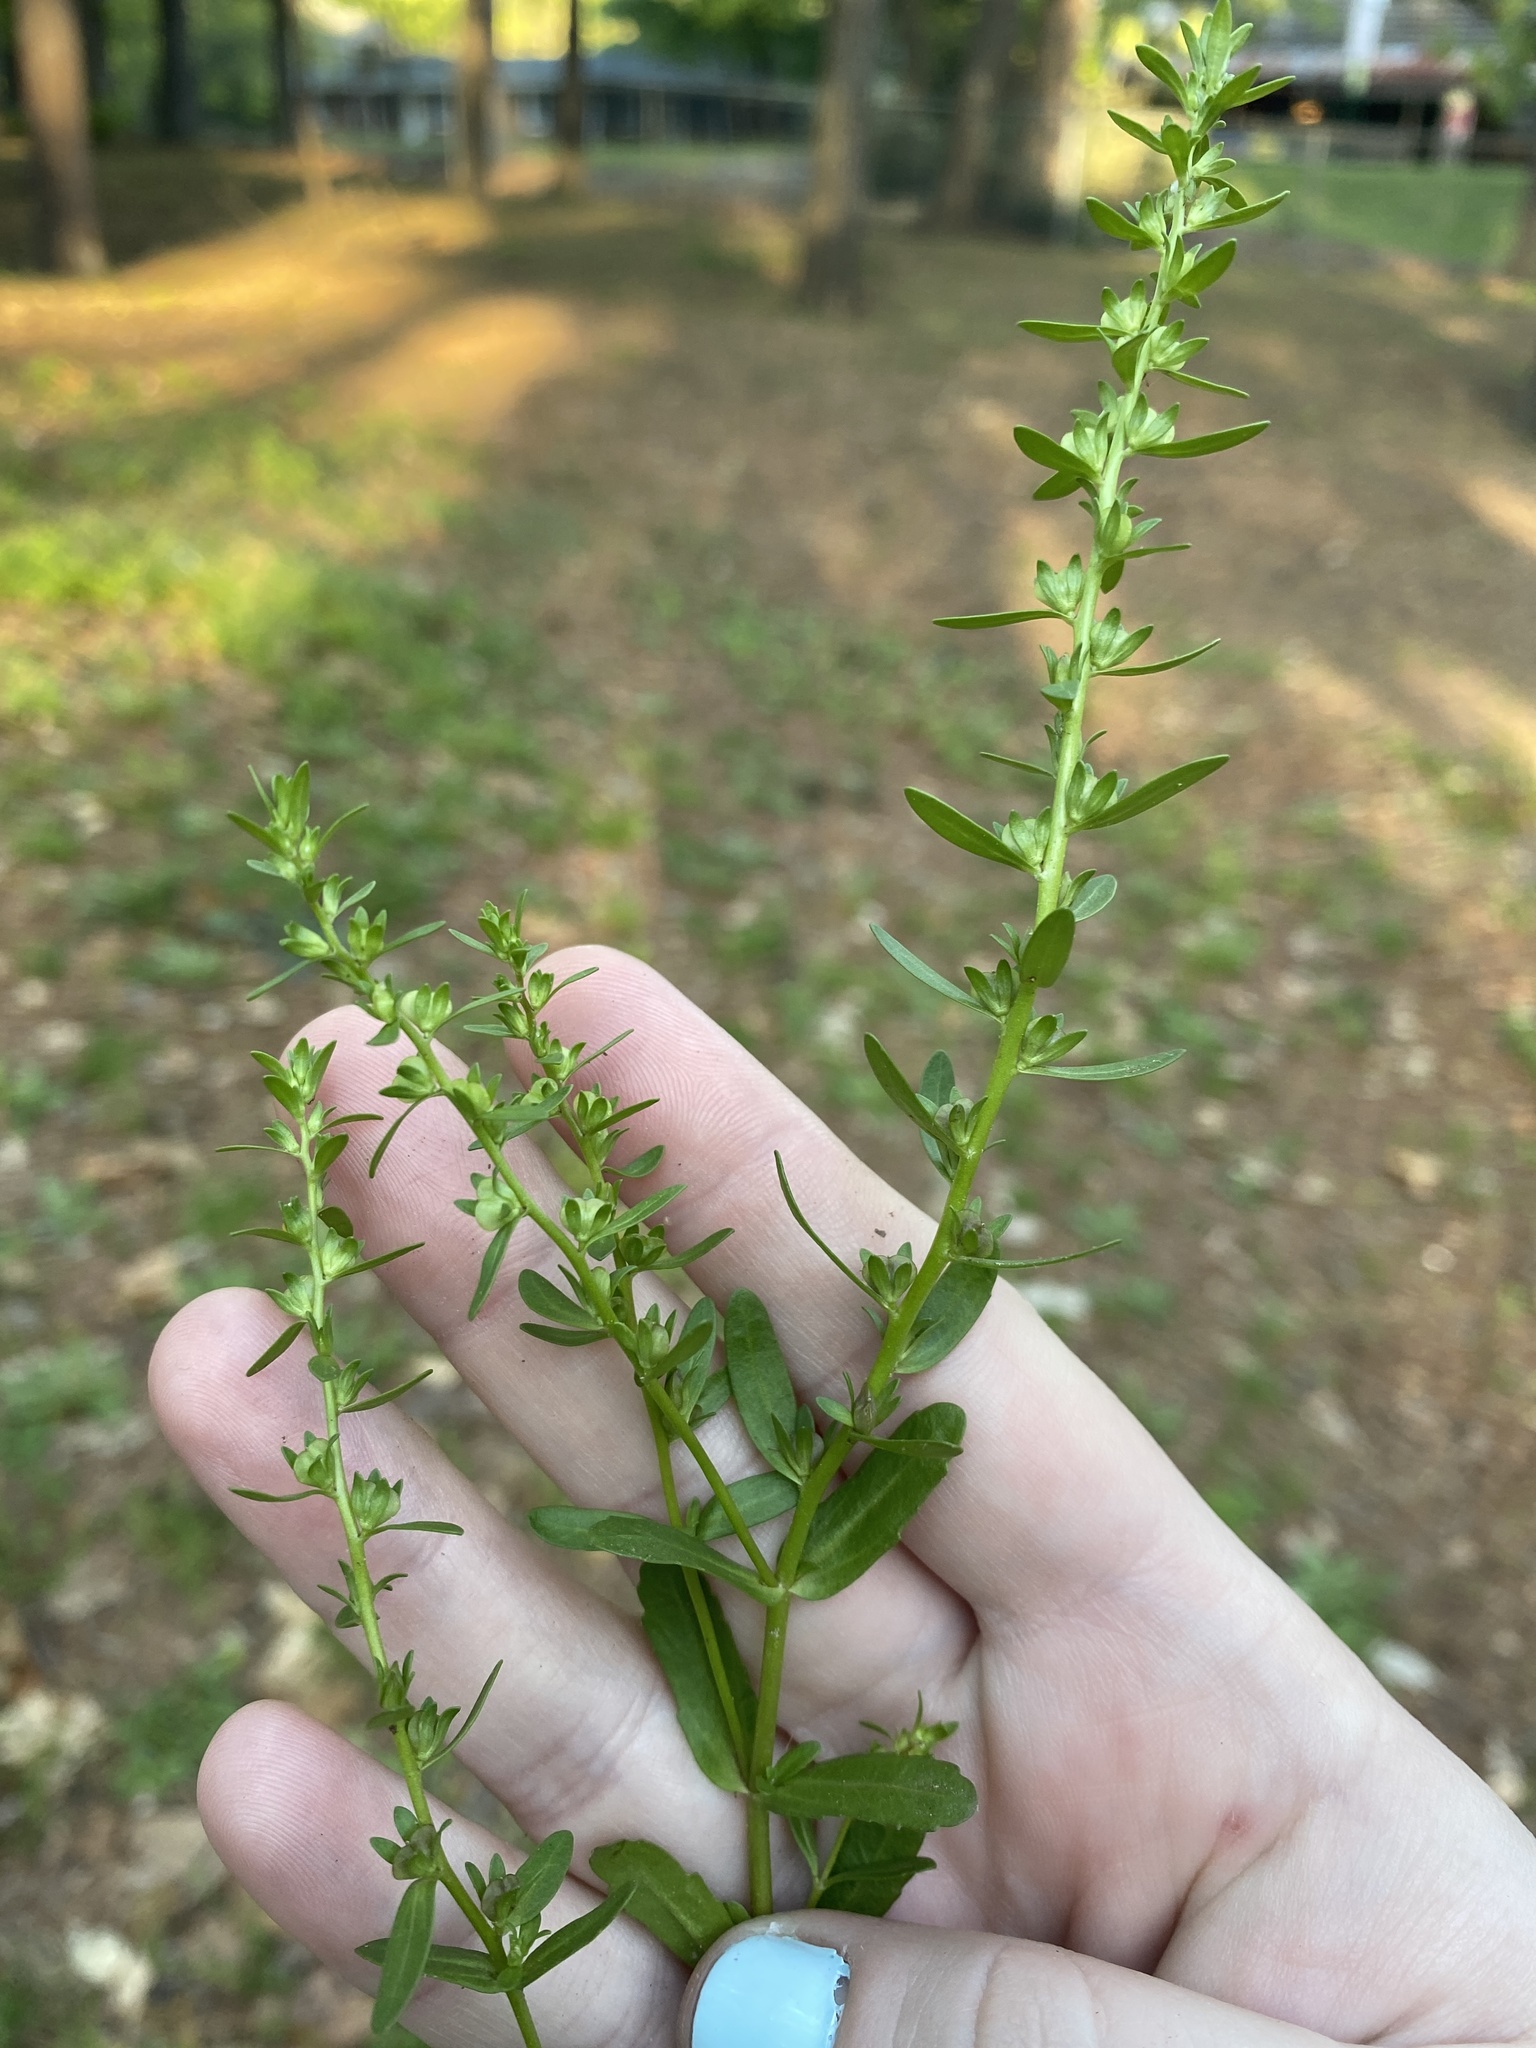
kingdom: Plantae
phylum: Tracheophyta
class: Magnoliopsida
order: Lamiales
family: Plantaginaceae
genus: Veronica
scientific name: Veronica peregrina
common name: Neckweed
